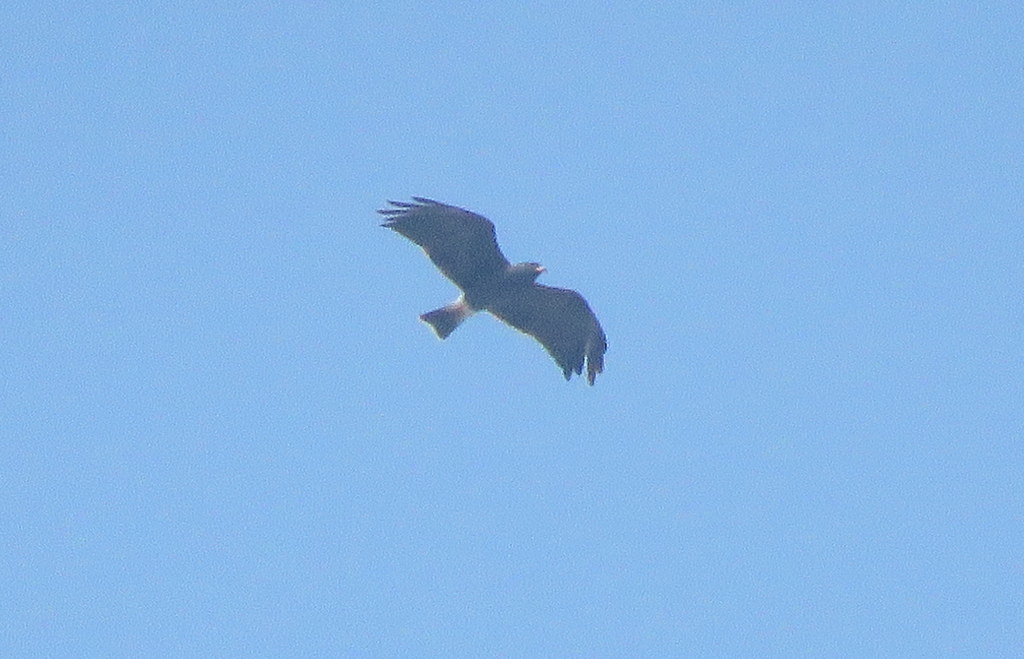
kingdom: Animalia
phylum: Chordata
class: Aves
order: Accipitriformes
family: Accipitridae
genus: Rostrhamus
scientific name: Rostrhamus sociabilis
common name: Snail kite
